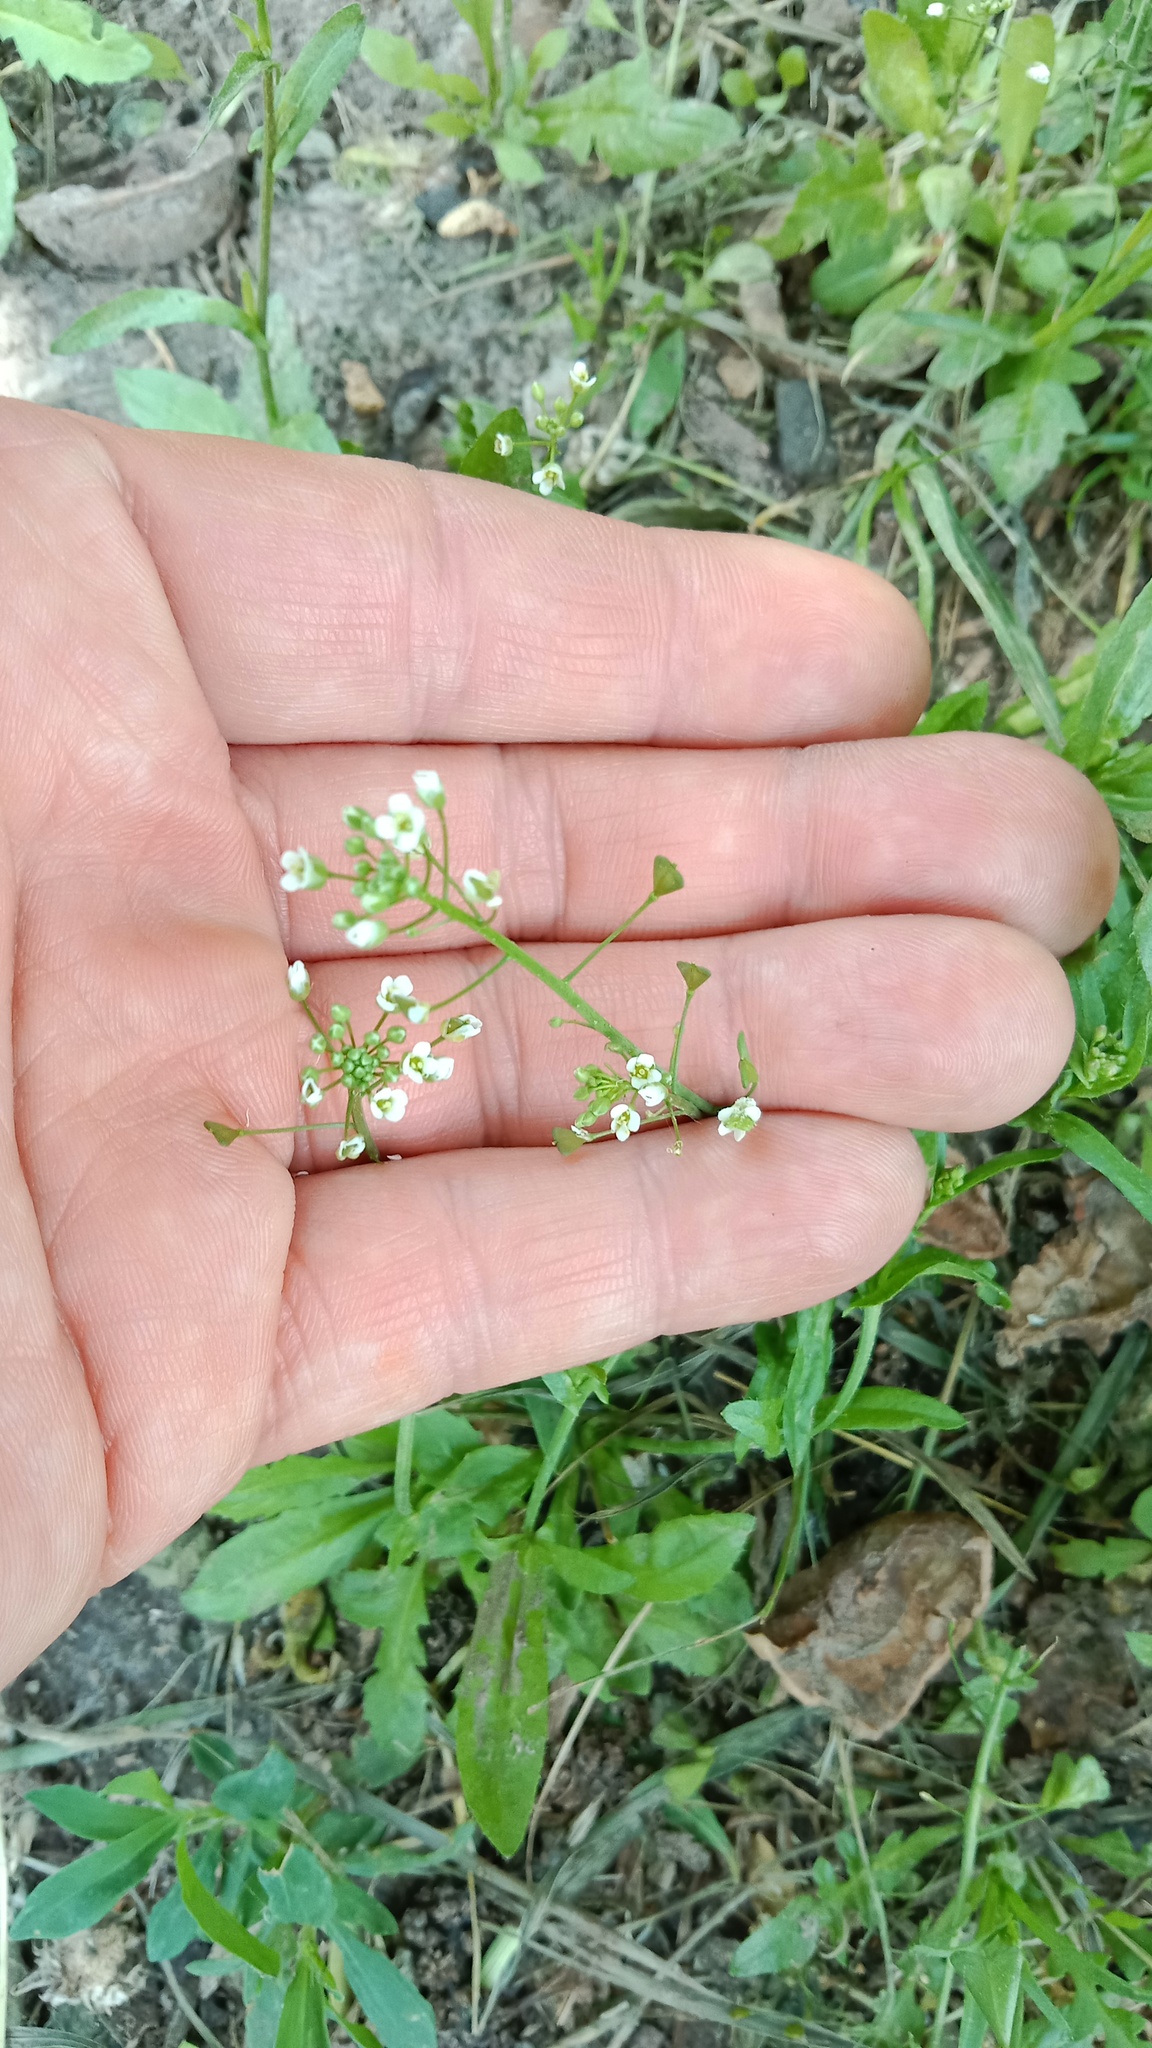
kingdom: Plantae
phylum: Tracheophyta
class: Magnoliopsida
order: Brassicales
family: Brassicaceae
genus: Capsella
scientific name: Capsella bursa-pastoris
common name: Shepherd's purse
